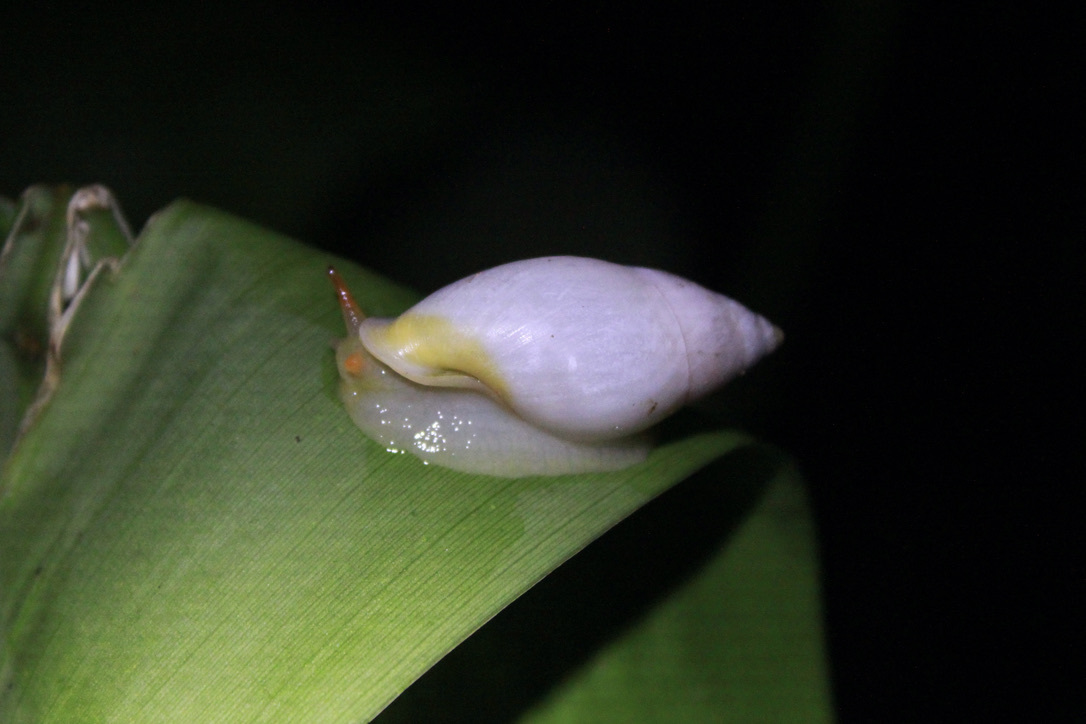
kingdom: Animalia
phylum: Mollusca
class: Gastropoda
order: Stylommatophora
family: Bulimulidae
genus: Drymaeus
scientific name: Drymaeus
